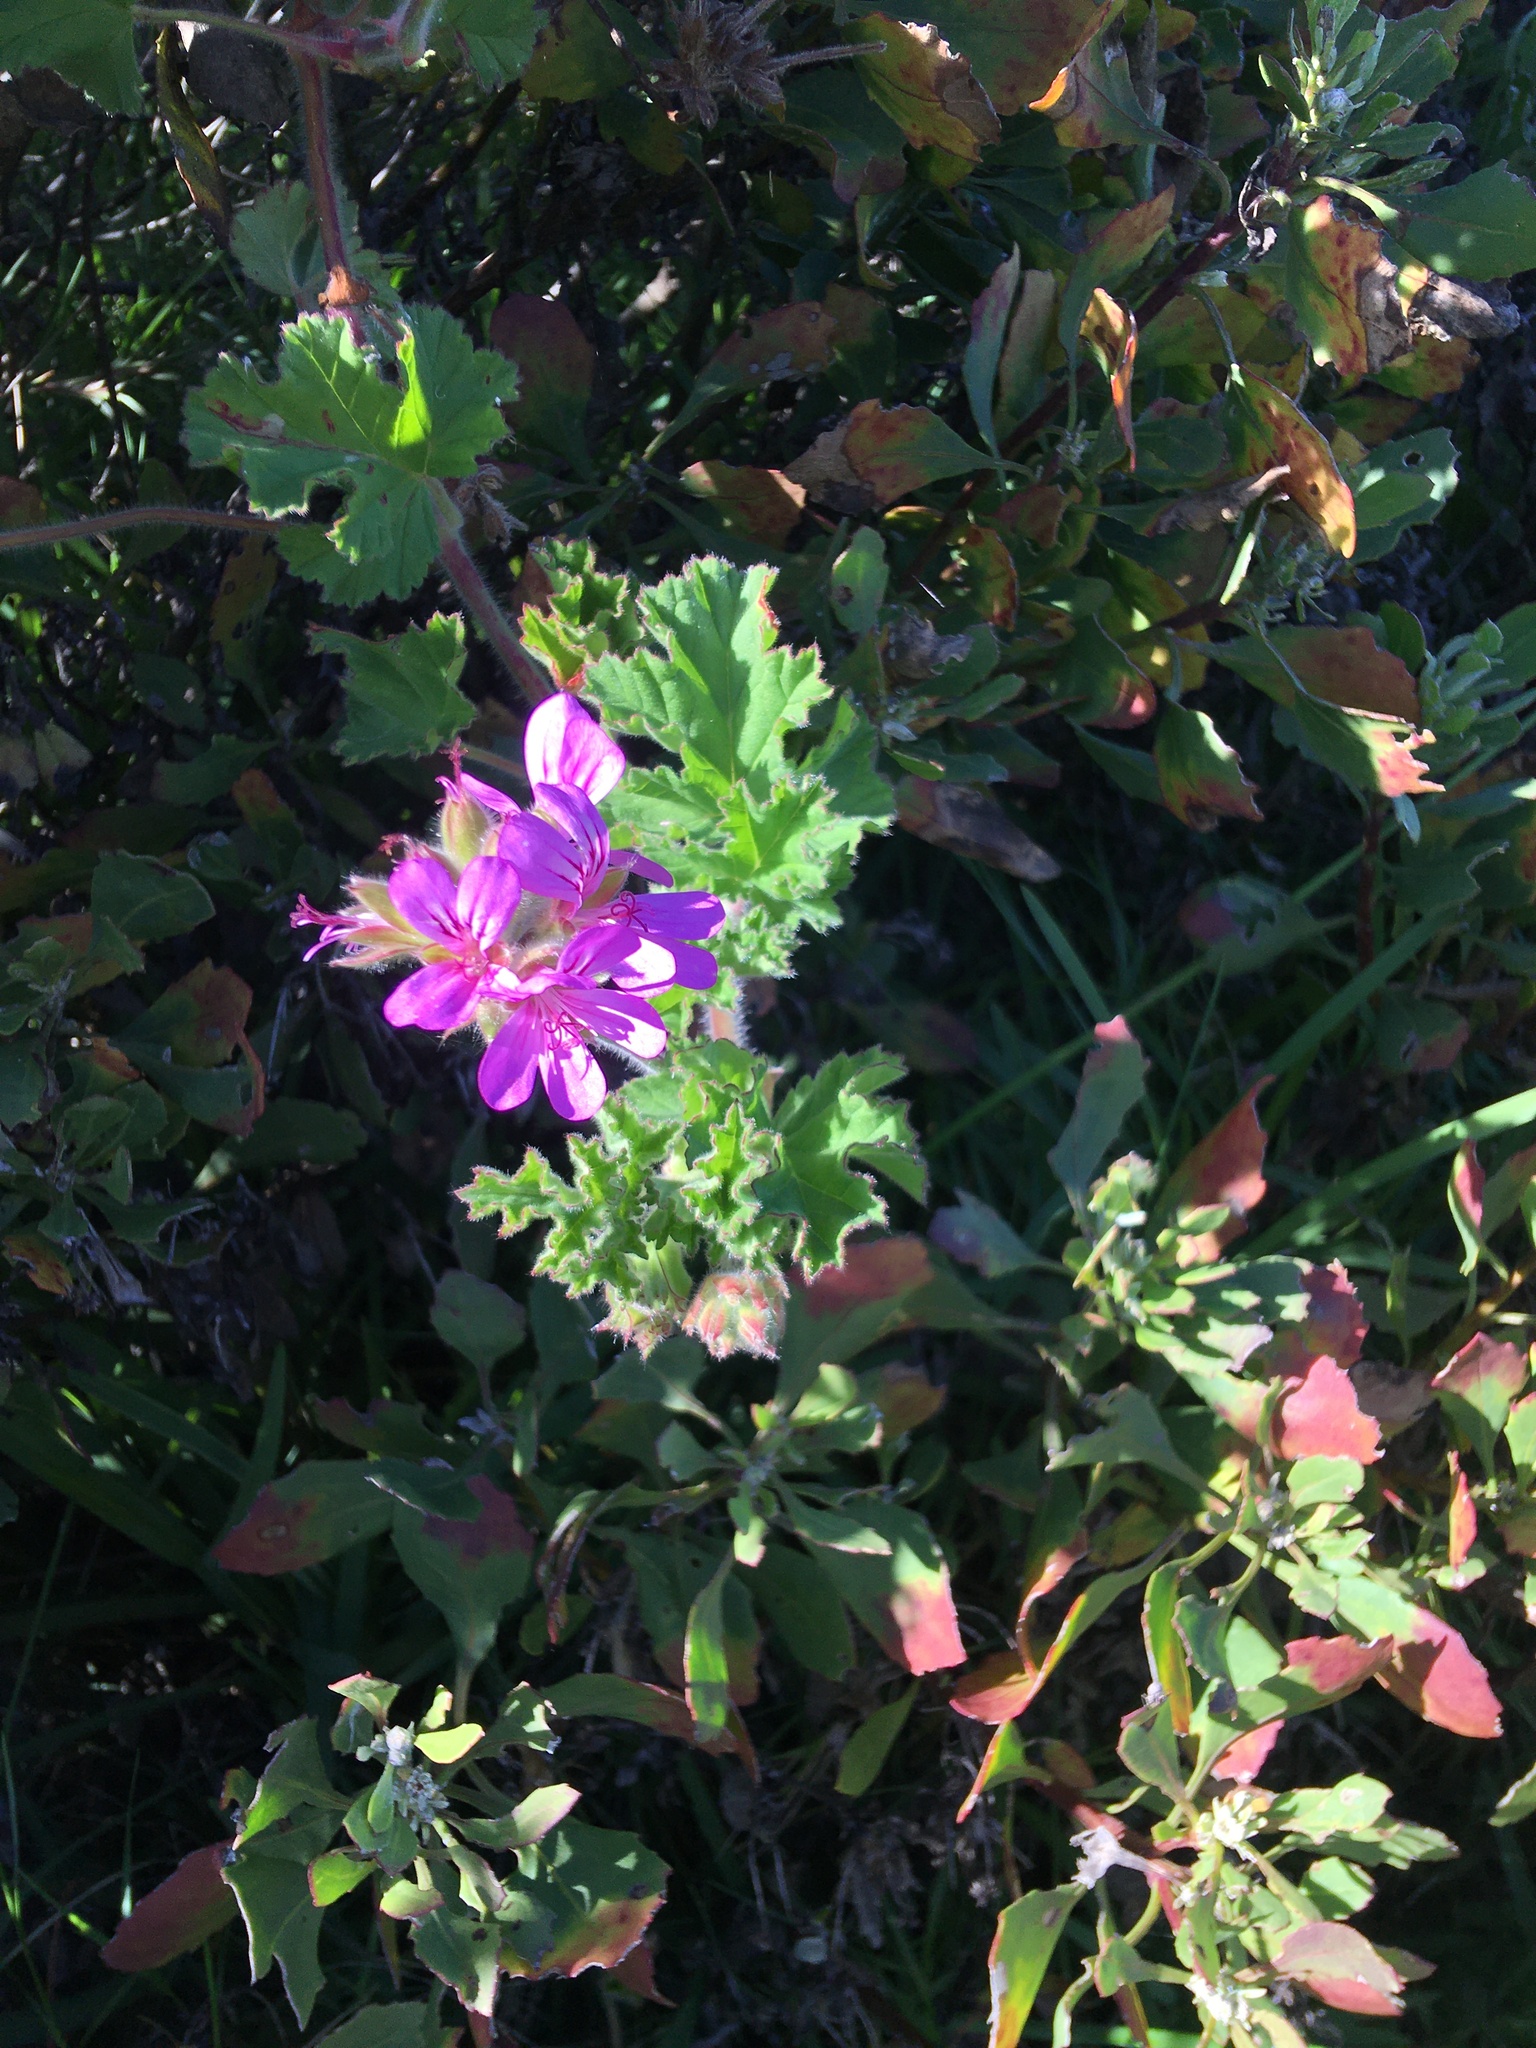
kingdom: Plantae
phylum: Tracheophyta
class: Magnoliopsida
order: Geraniales
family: Geraniaceae
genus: Pelargonium
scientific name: Pelargonium capitatum
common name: Rose scented geranium
